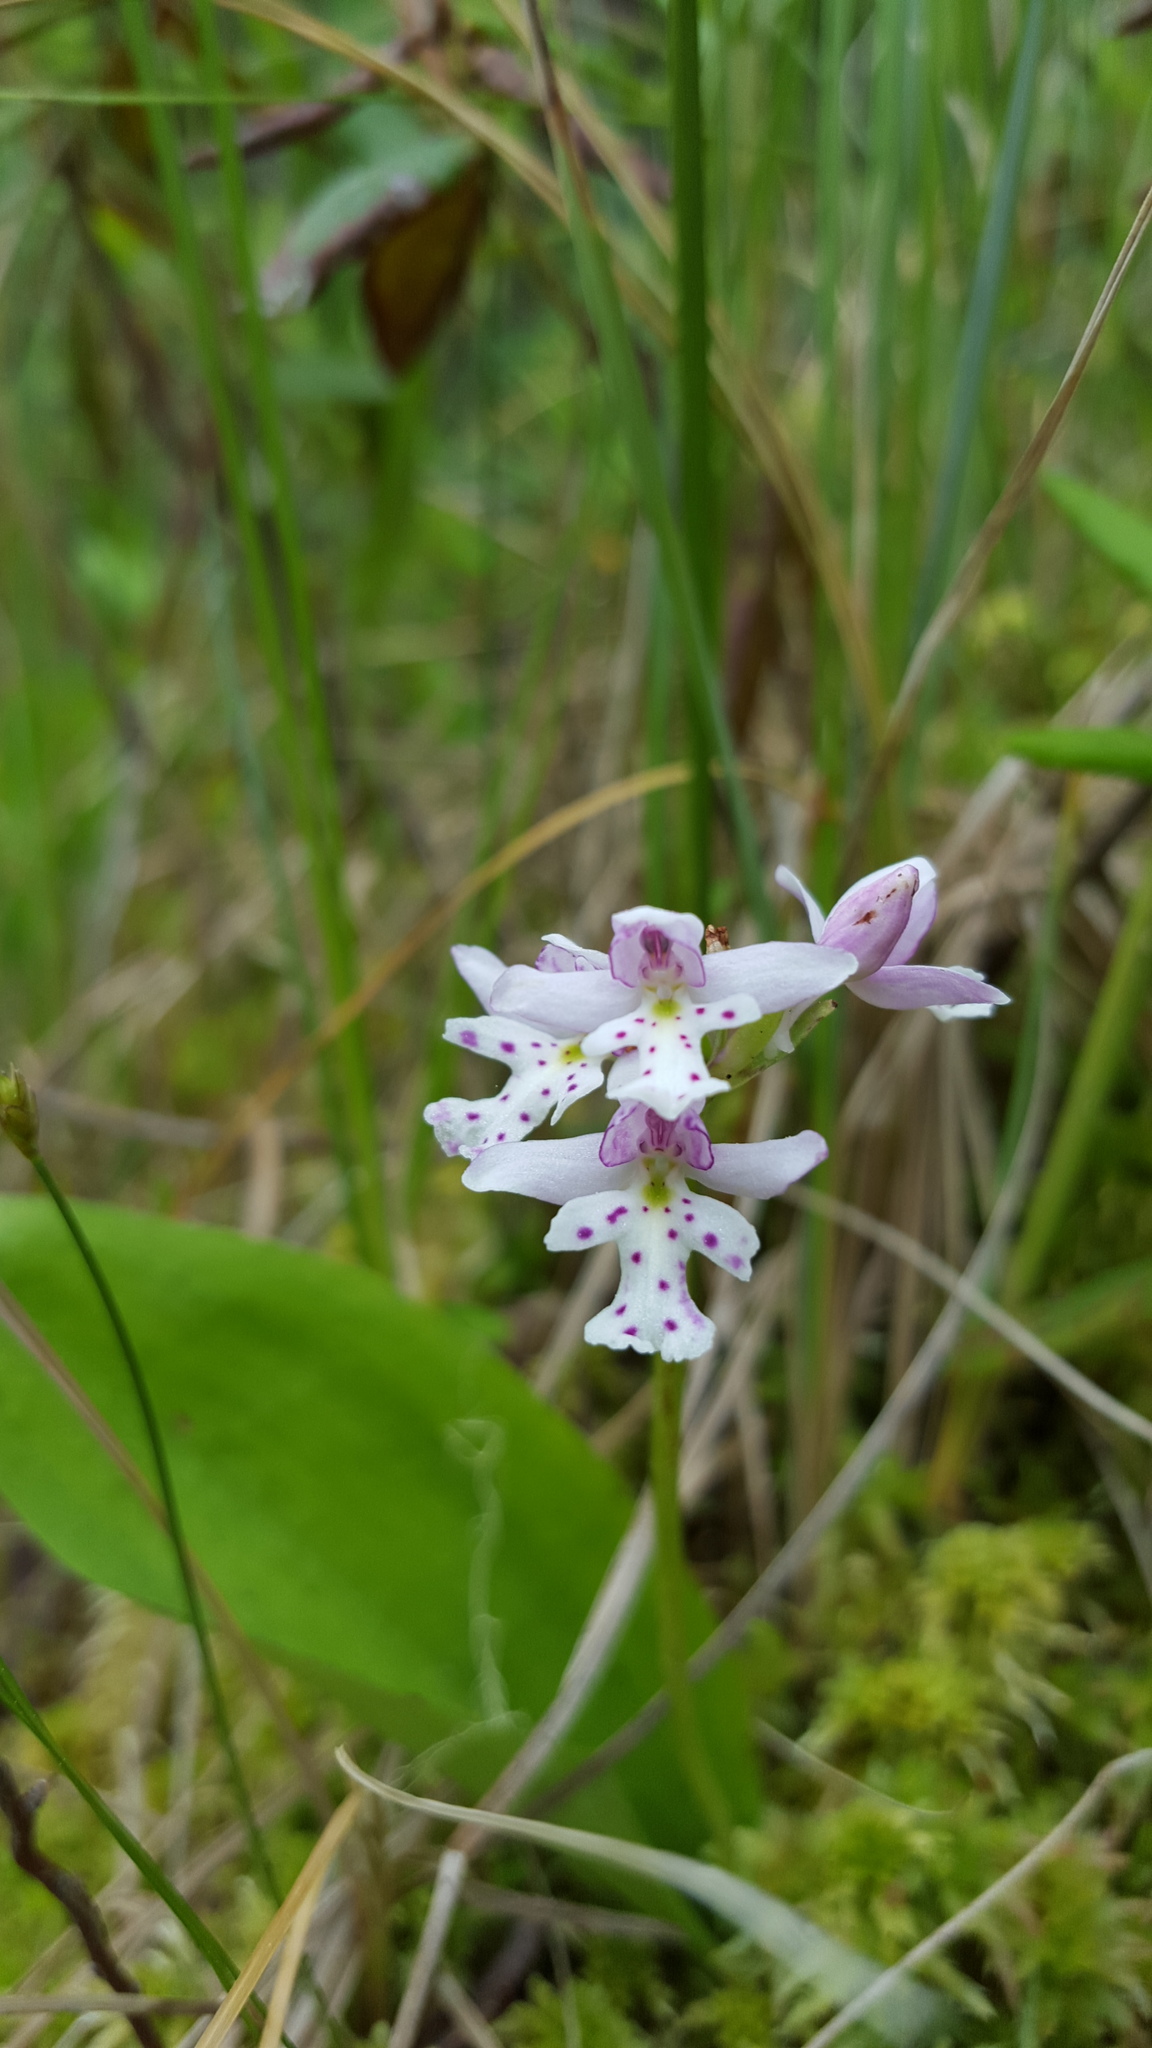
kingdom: Plantae
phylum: Tracheophyta
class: Liliopsida
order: Asparagales
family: Orchidaceae
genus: Galearis
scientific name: Galearis rotundifolia
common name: One-leaved orchis
